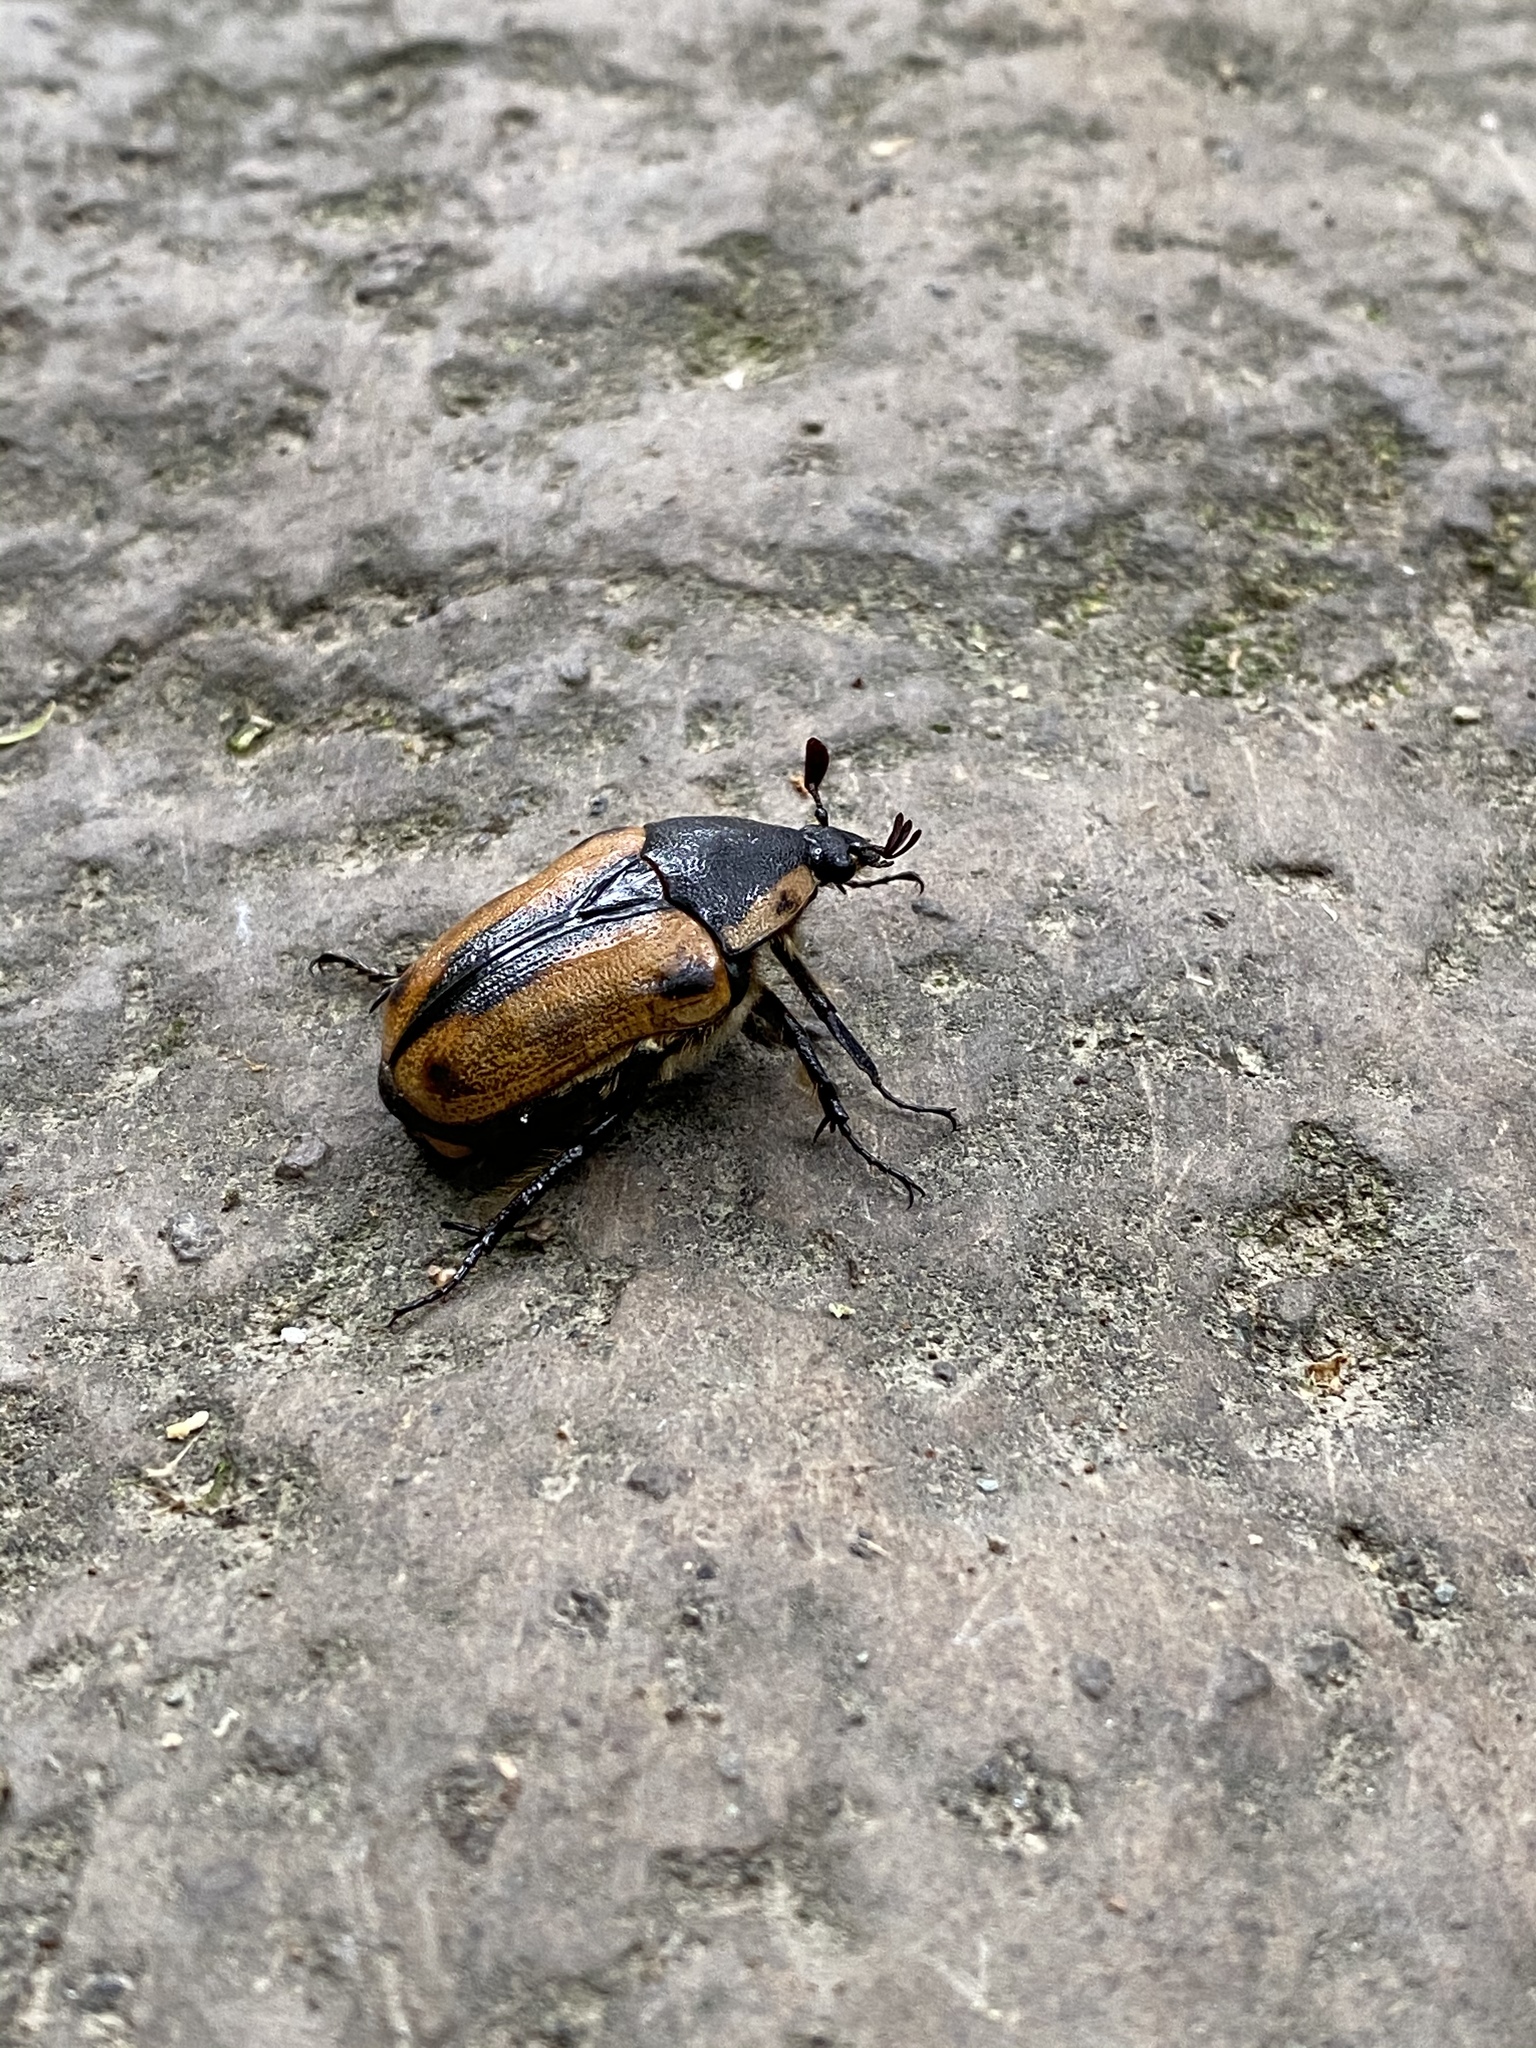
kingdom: Animalia
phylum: Arthropoda
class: Insecta
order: Coleoptera
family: Scarabaeidae
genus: Chondropyga
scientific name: Chondropyga dorsalis
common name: Cowboy beetle
